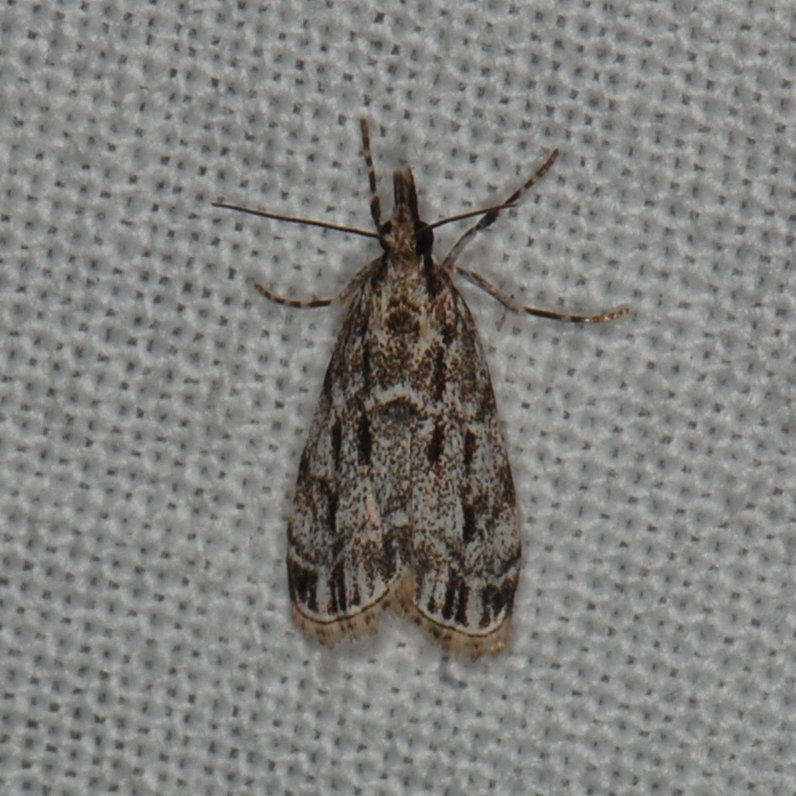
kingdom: Animalia
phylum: Arthropoda
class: Insecta
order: Lepidoptera
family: Crambidae
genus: Eudonia
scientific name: Eudonia strigalis
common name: Striped eudonia moth
